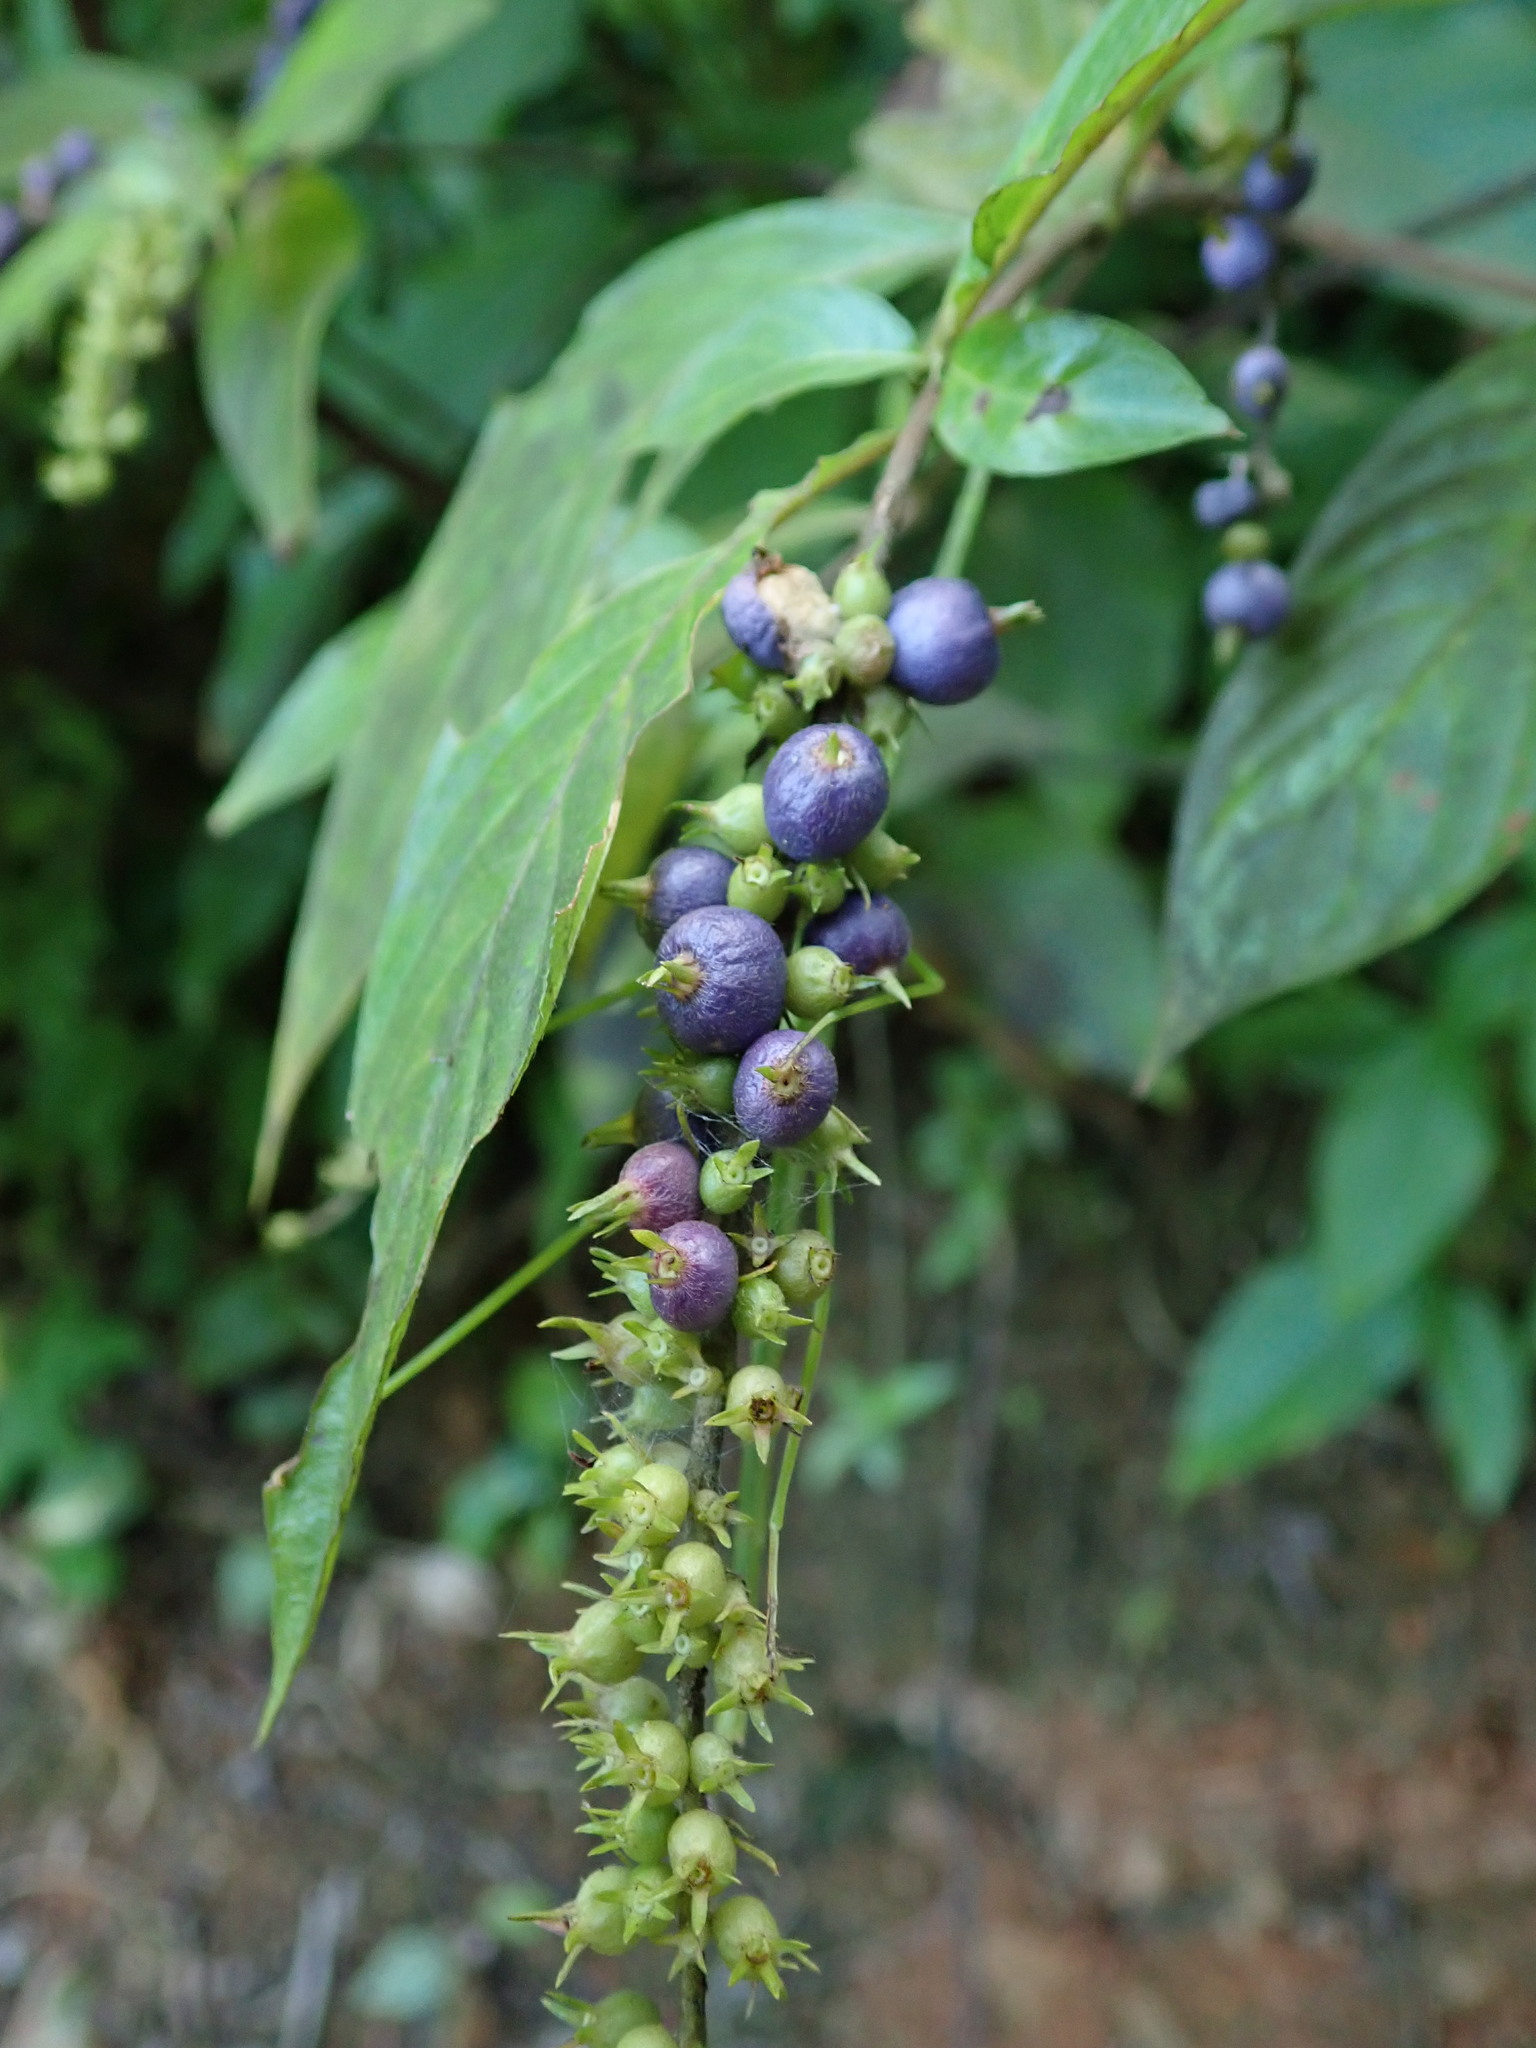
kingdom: Plantae
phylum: Tracheophyta
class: Magnoliopsida
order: Gentianales
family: Rubiaceae
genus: Gonzalagunia
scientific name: Gonzalagunia hirsuta
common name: Mata de mariposa
